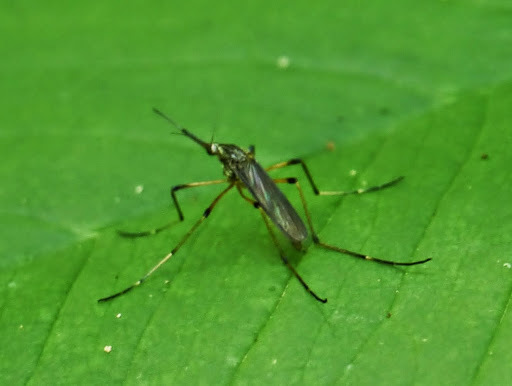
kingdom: Animalia
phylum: Arthropoda
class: Insecta
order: Diptera
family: Culicidae
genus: Psorophora
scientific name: Psorophora ciliata
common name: Gallinipper
